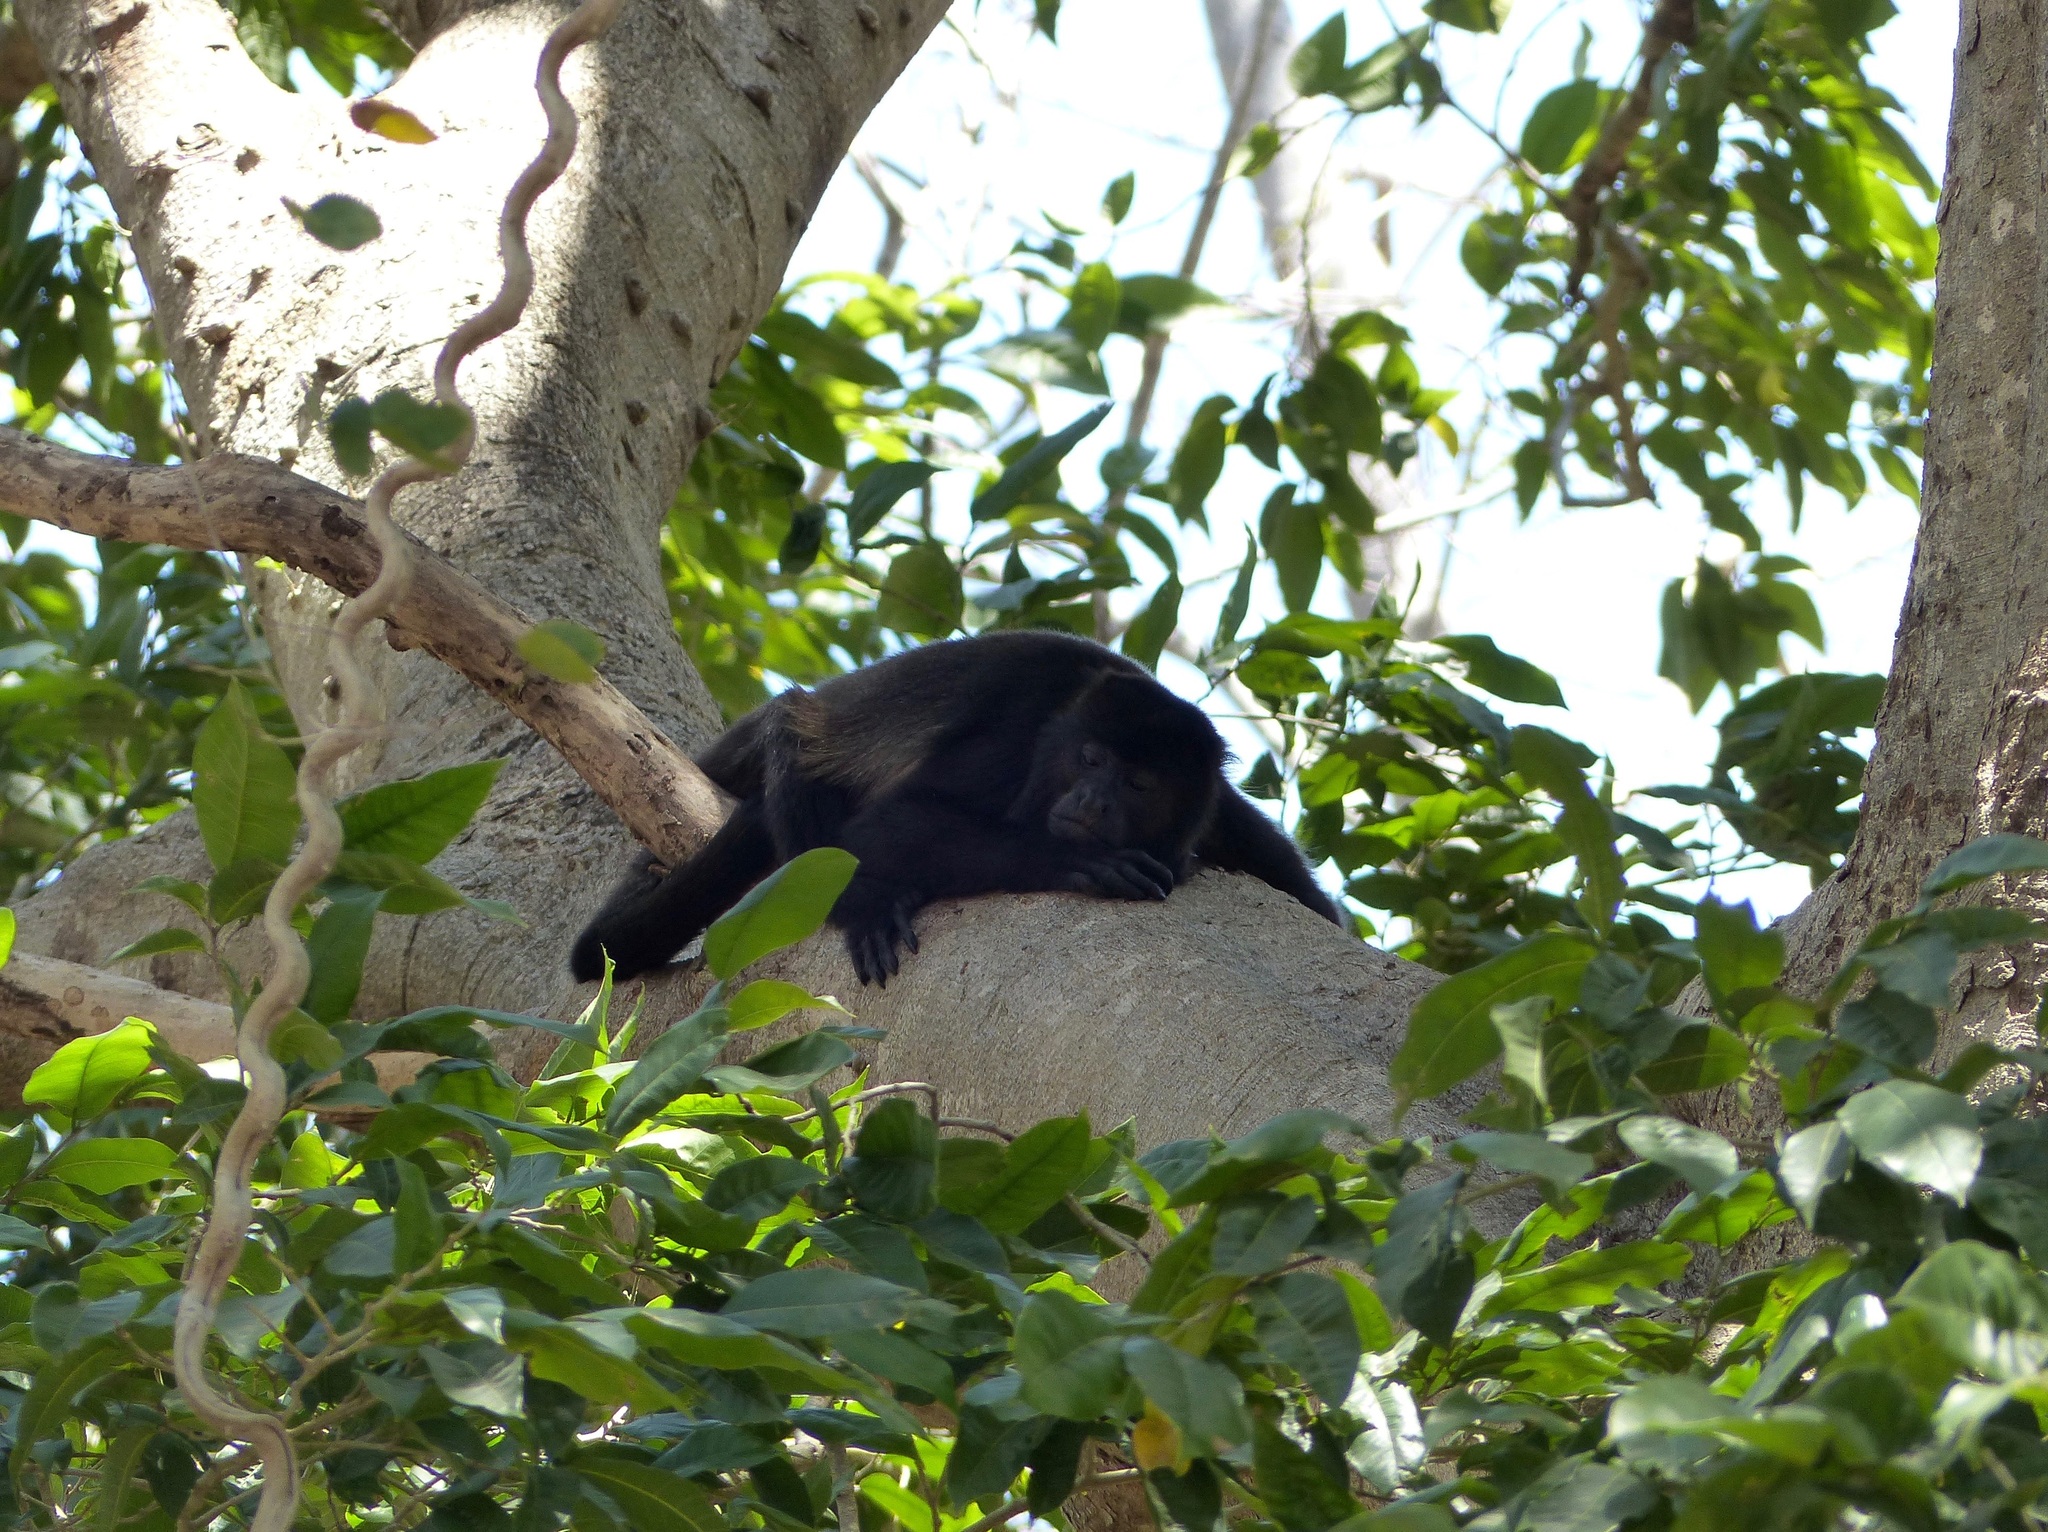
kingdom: Animalia
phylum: Chordata
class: Mammalia
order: Primates
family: Atelidae
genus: Alouatta
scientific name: Alouatta palliata
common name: Mantled howler
